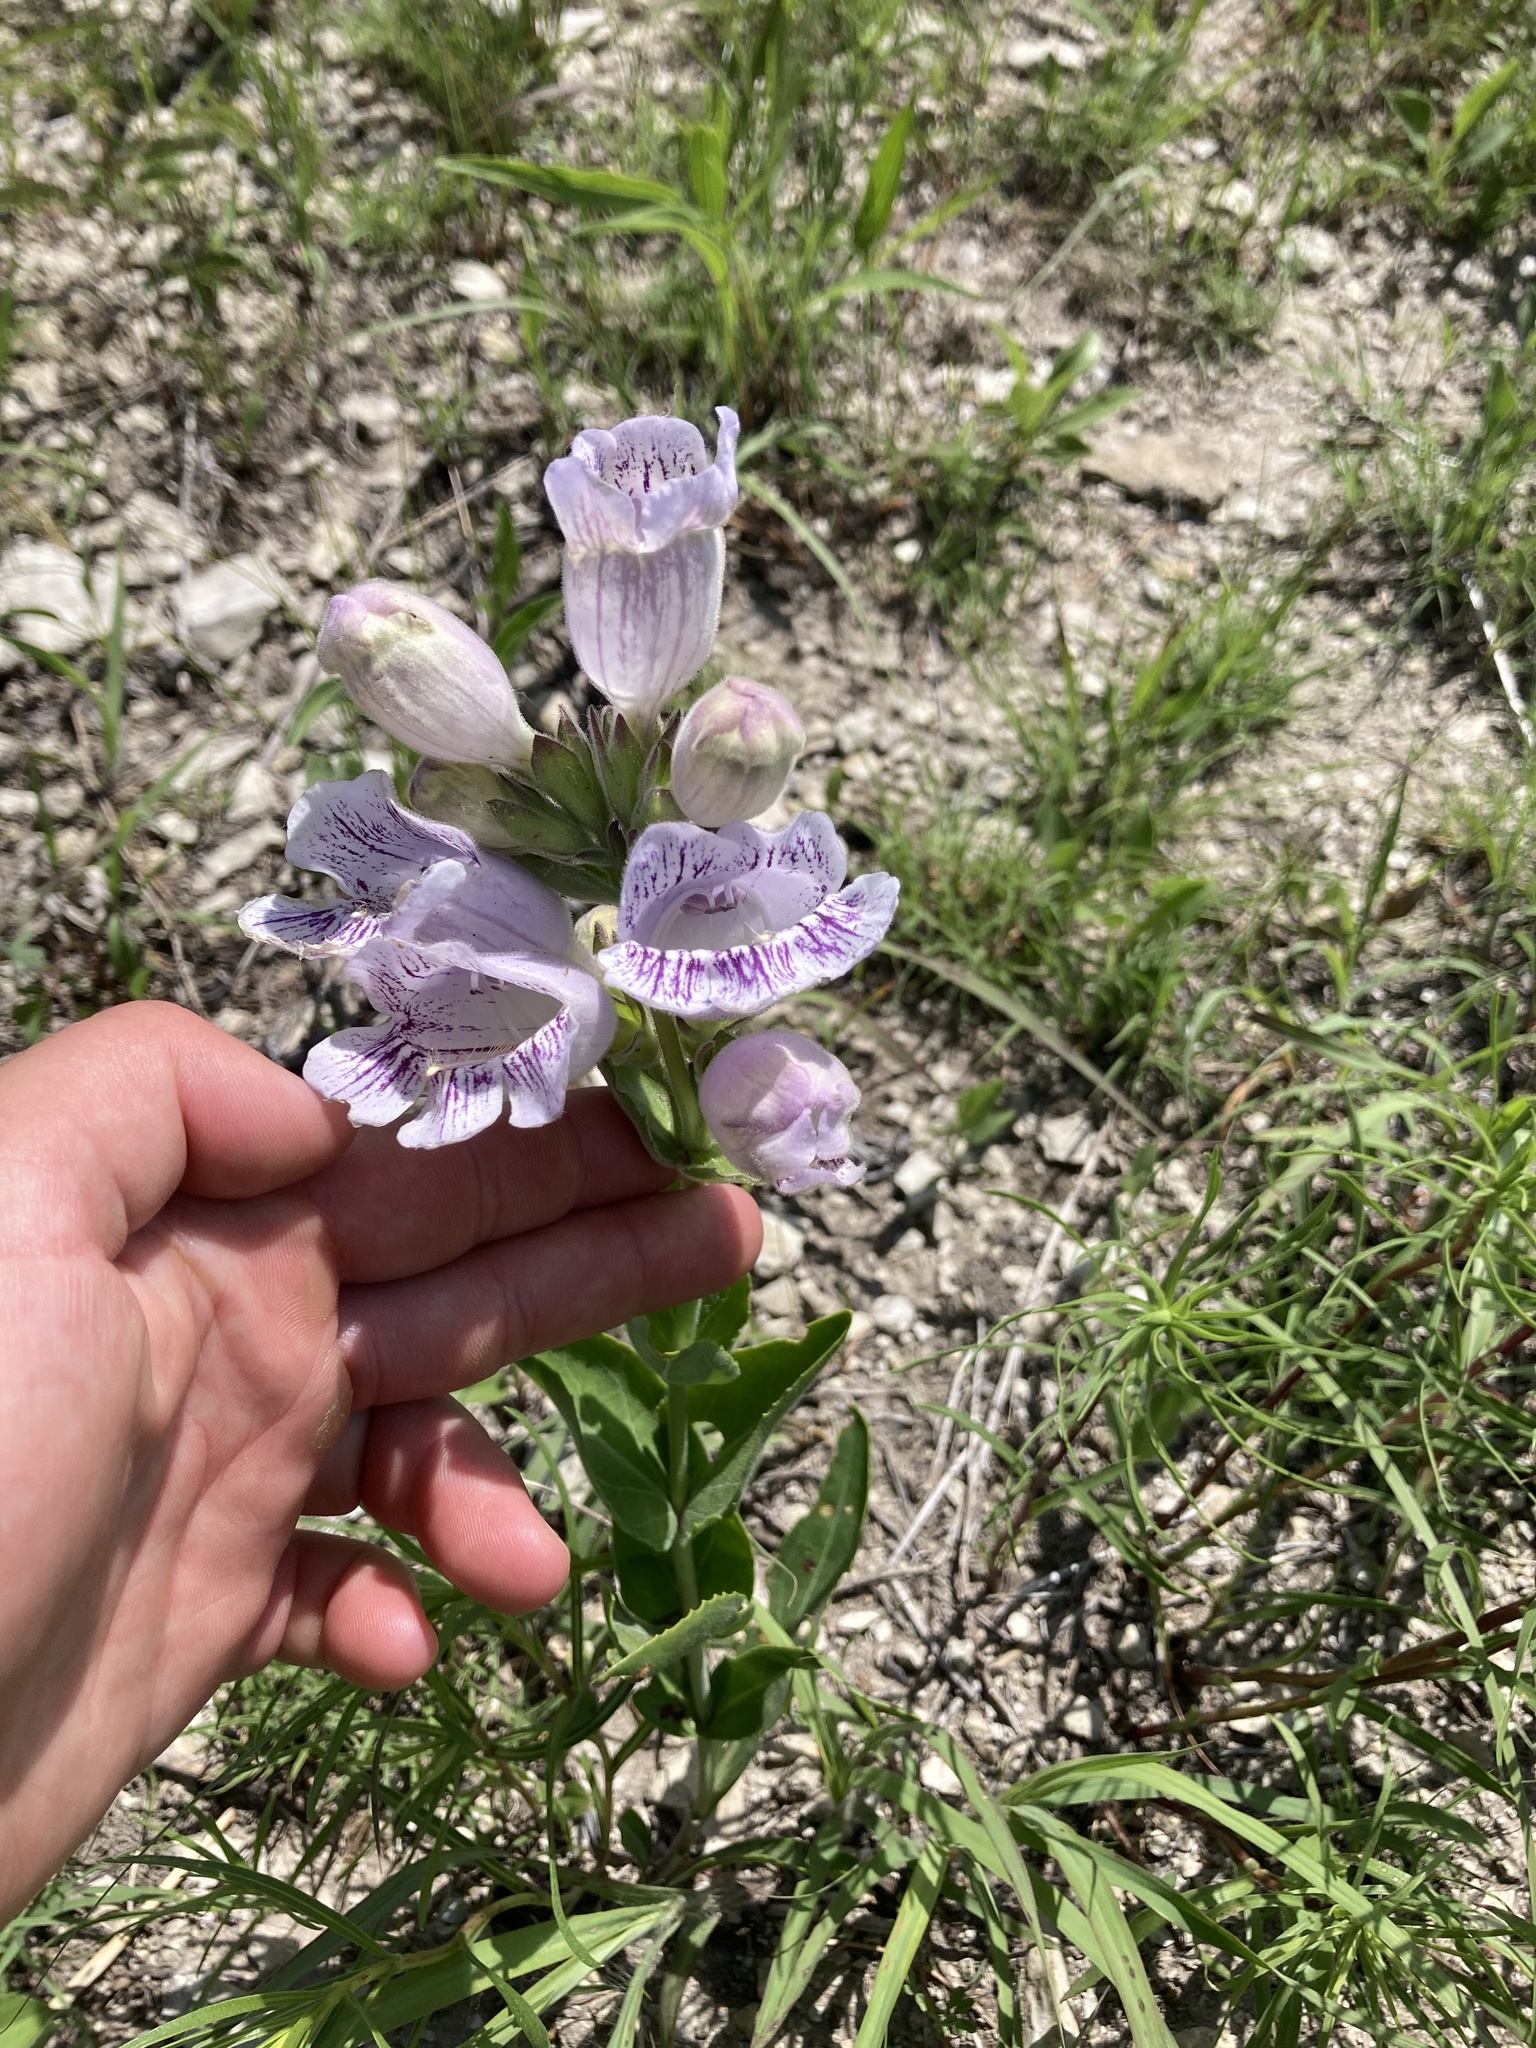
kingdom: Plantae
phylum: Tracheophyta
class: Magnoliopsida
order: Lamiales
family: Plantaginaceae
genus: Penstemon
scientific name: Penstemon cobaea
